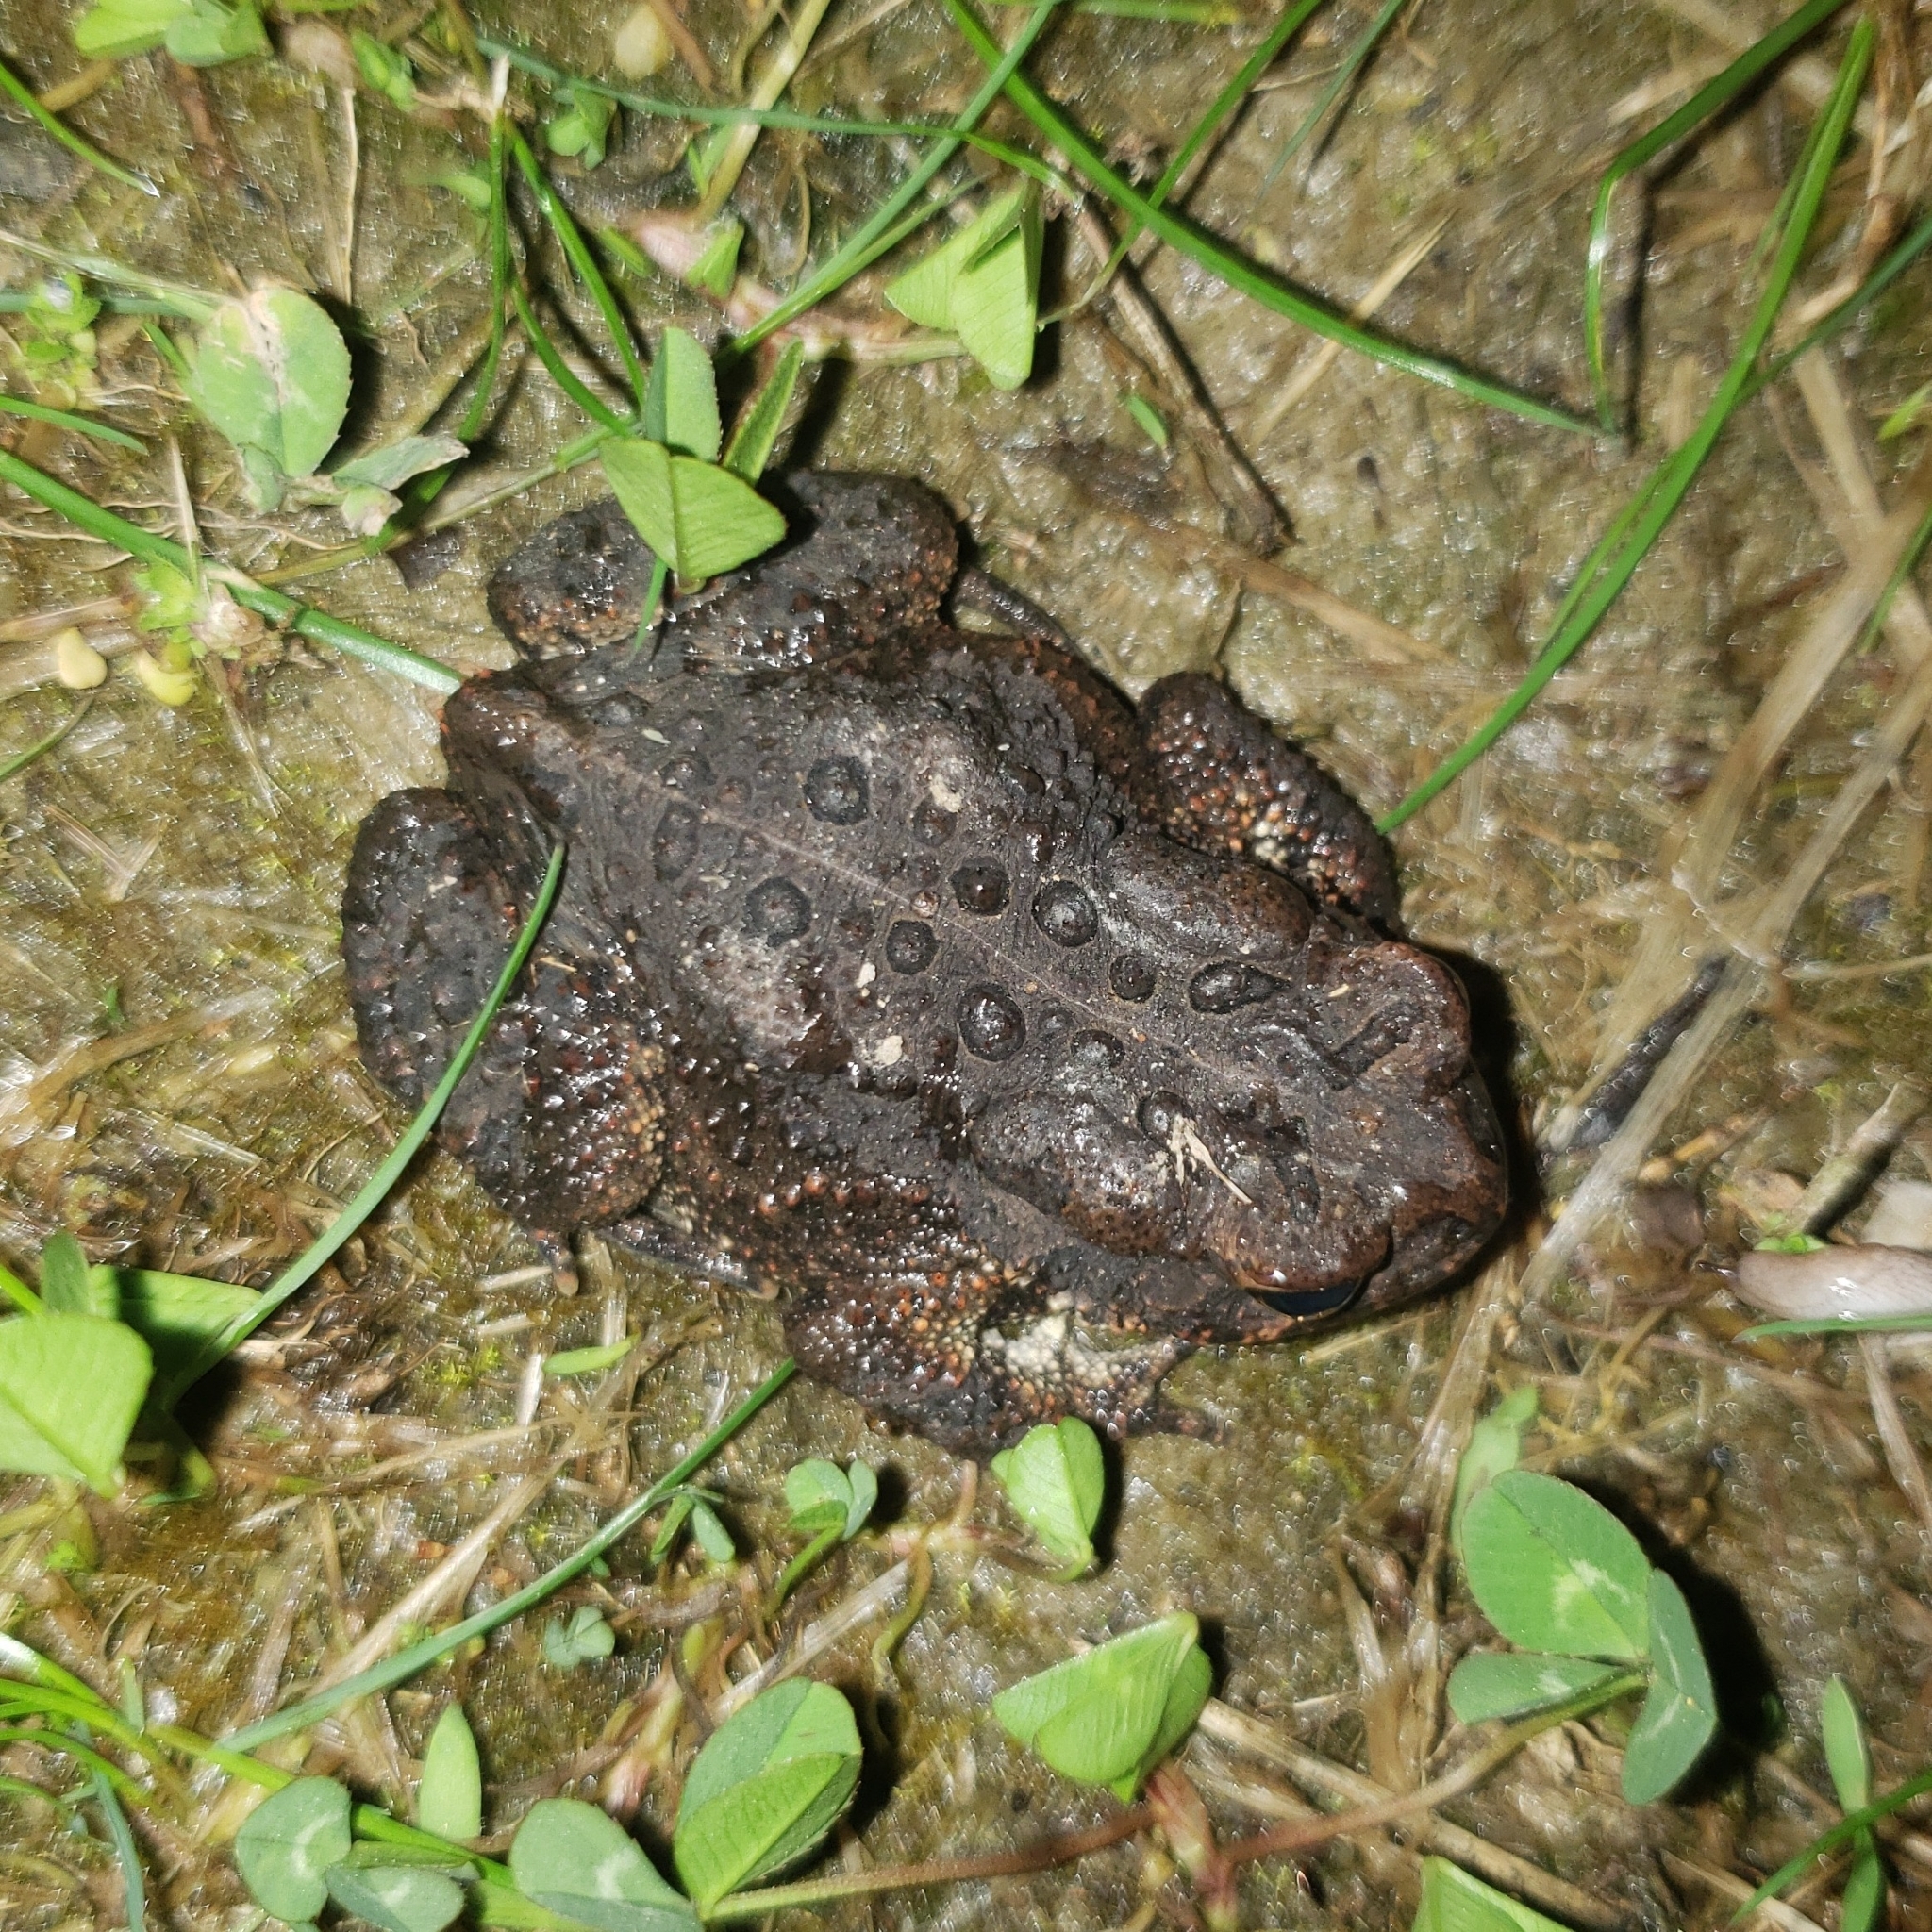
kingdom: Animalia
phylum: Chordata
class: Amphibia
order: Anura
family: Bufonidae
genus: Anaxyrus
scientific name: Anaxyrus americanus
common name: American toad
